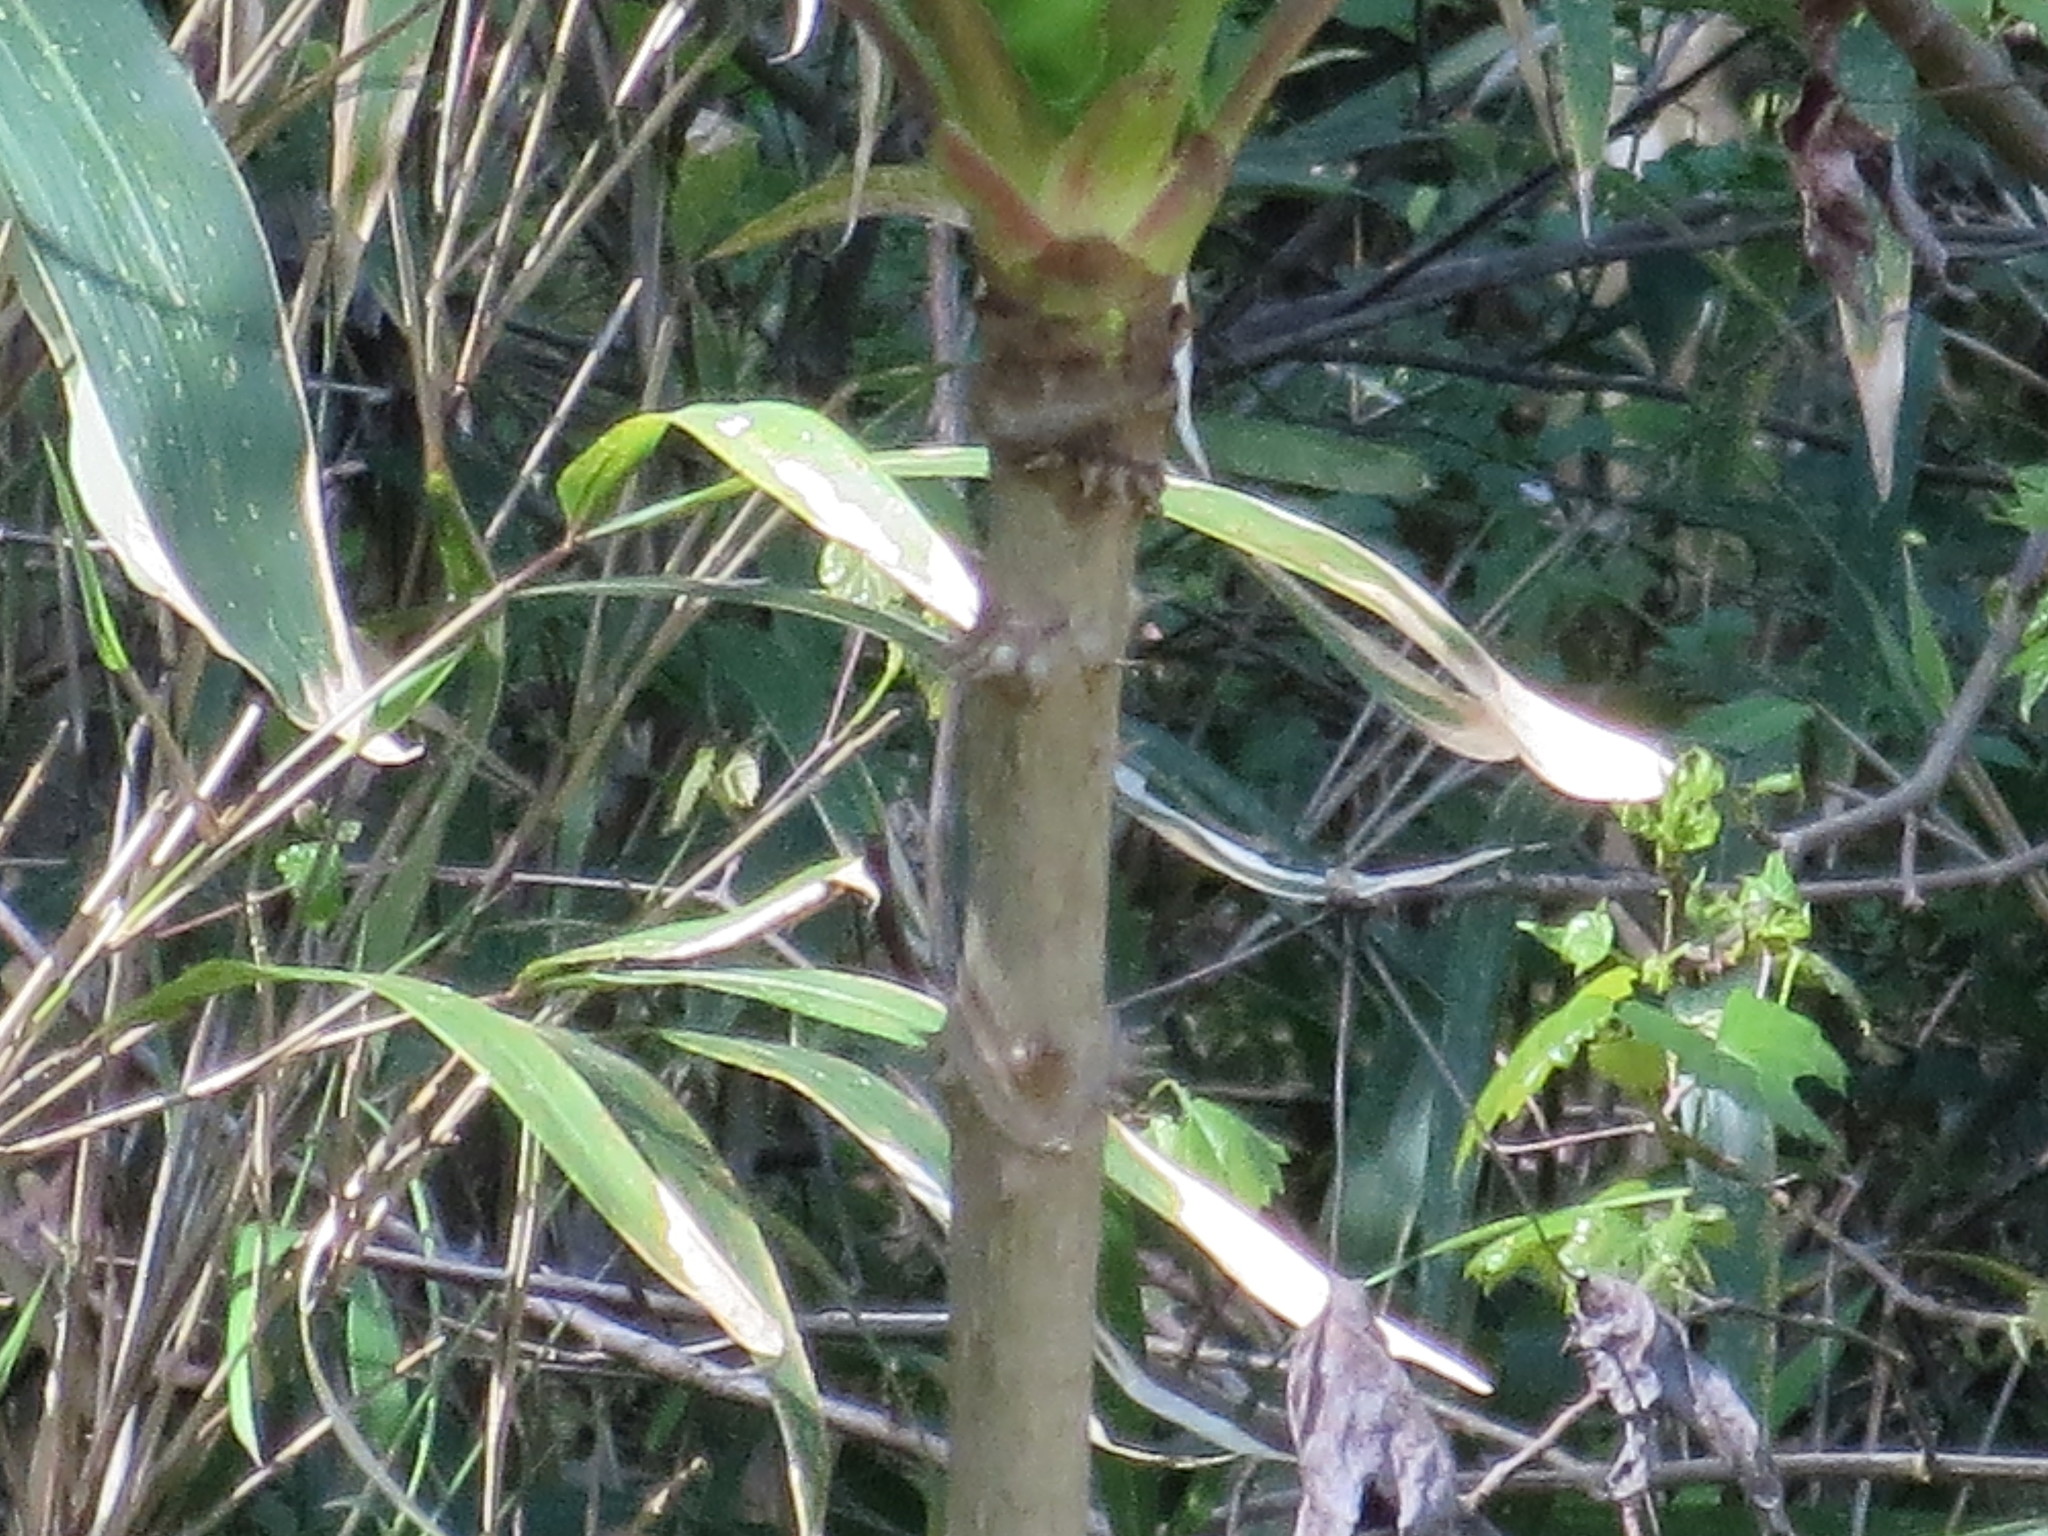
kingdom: Plantae
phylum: Tracheophyta
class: Magnoliopsida
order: Apiales
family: Araliaceae
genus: Aralia
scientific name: Aralia spinosa
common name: Hercules'-club
